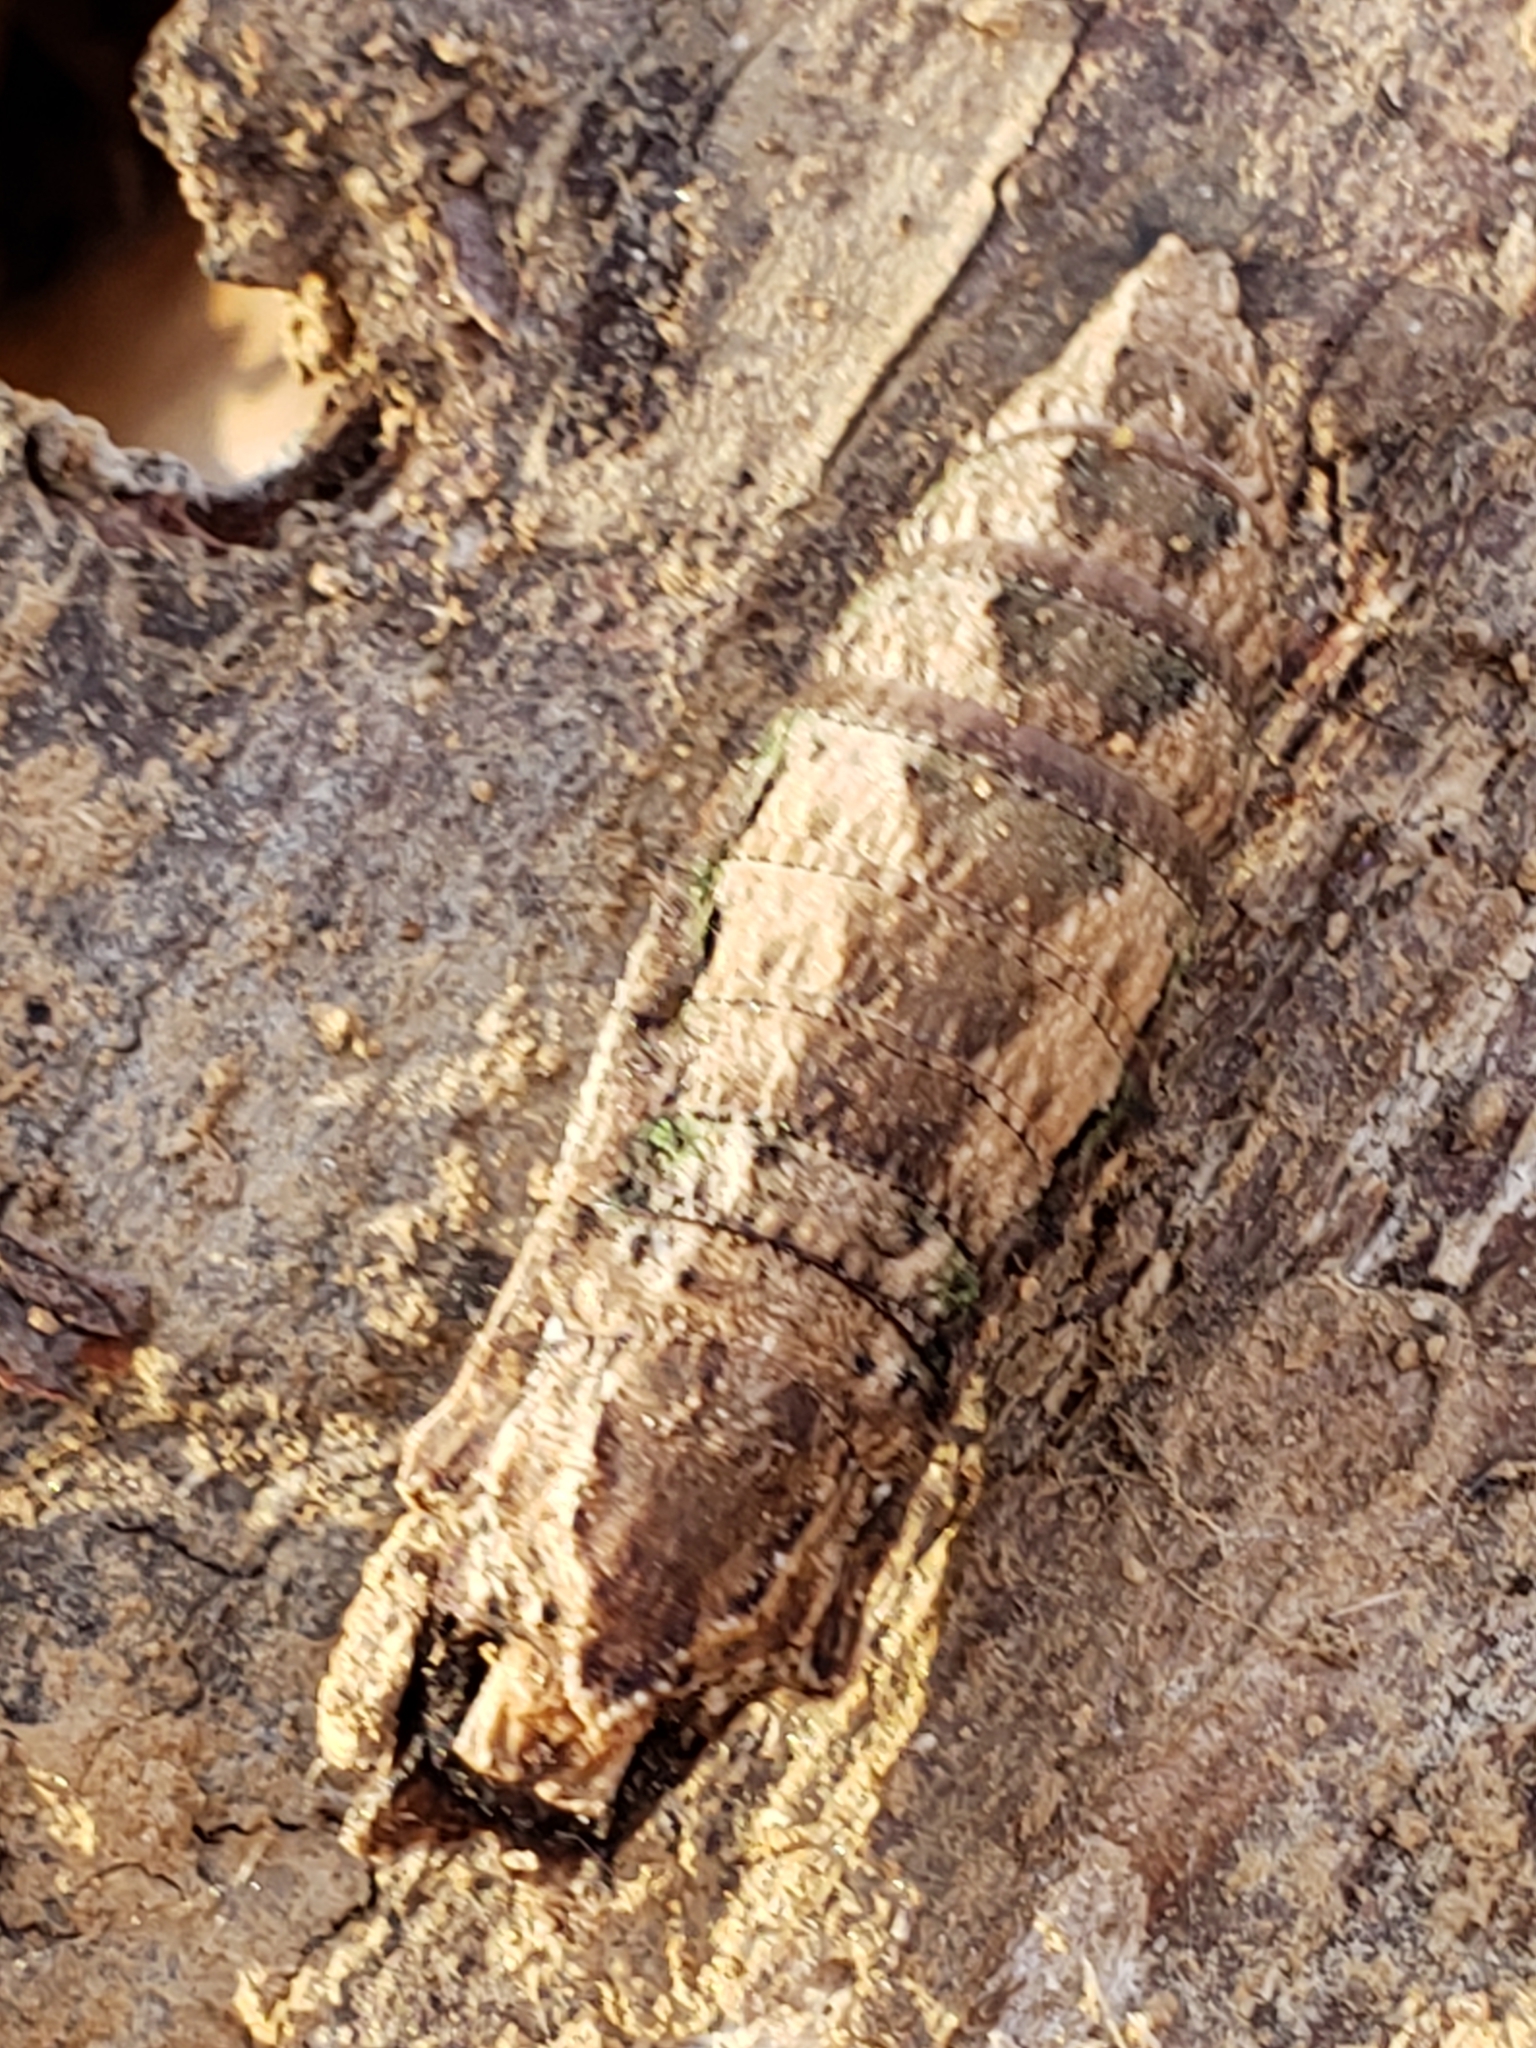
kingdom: Animalia
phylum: Arthropoda
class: Insecta
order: Lepidoptera
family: Papilionidae
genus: Papilio
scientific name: Papilio glaucus
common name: Tiger swallowtail
